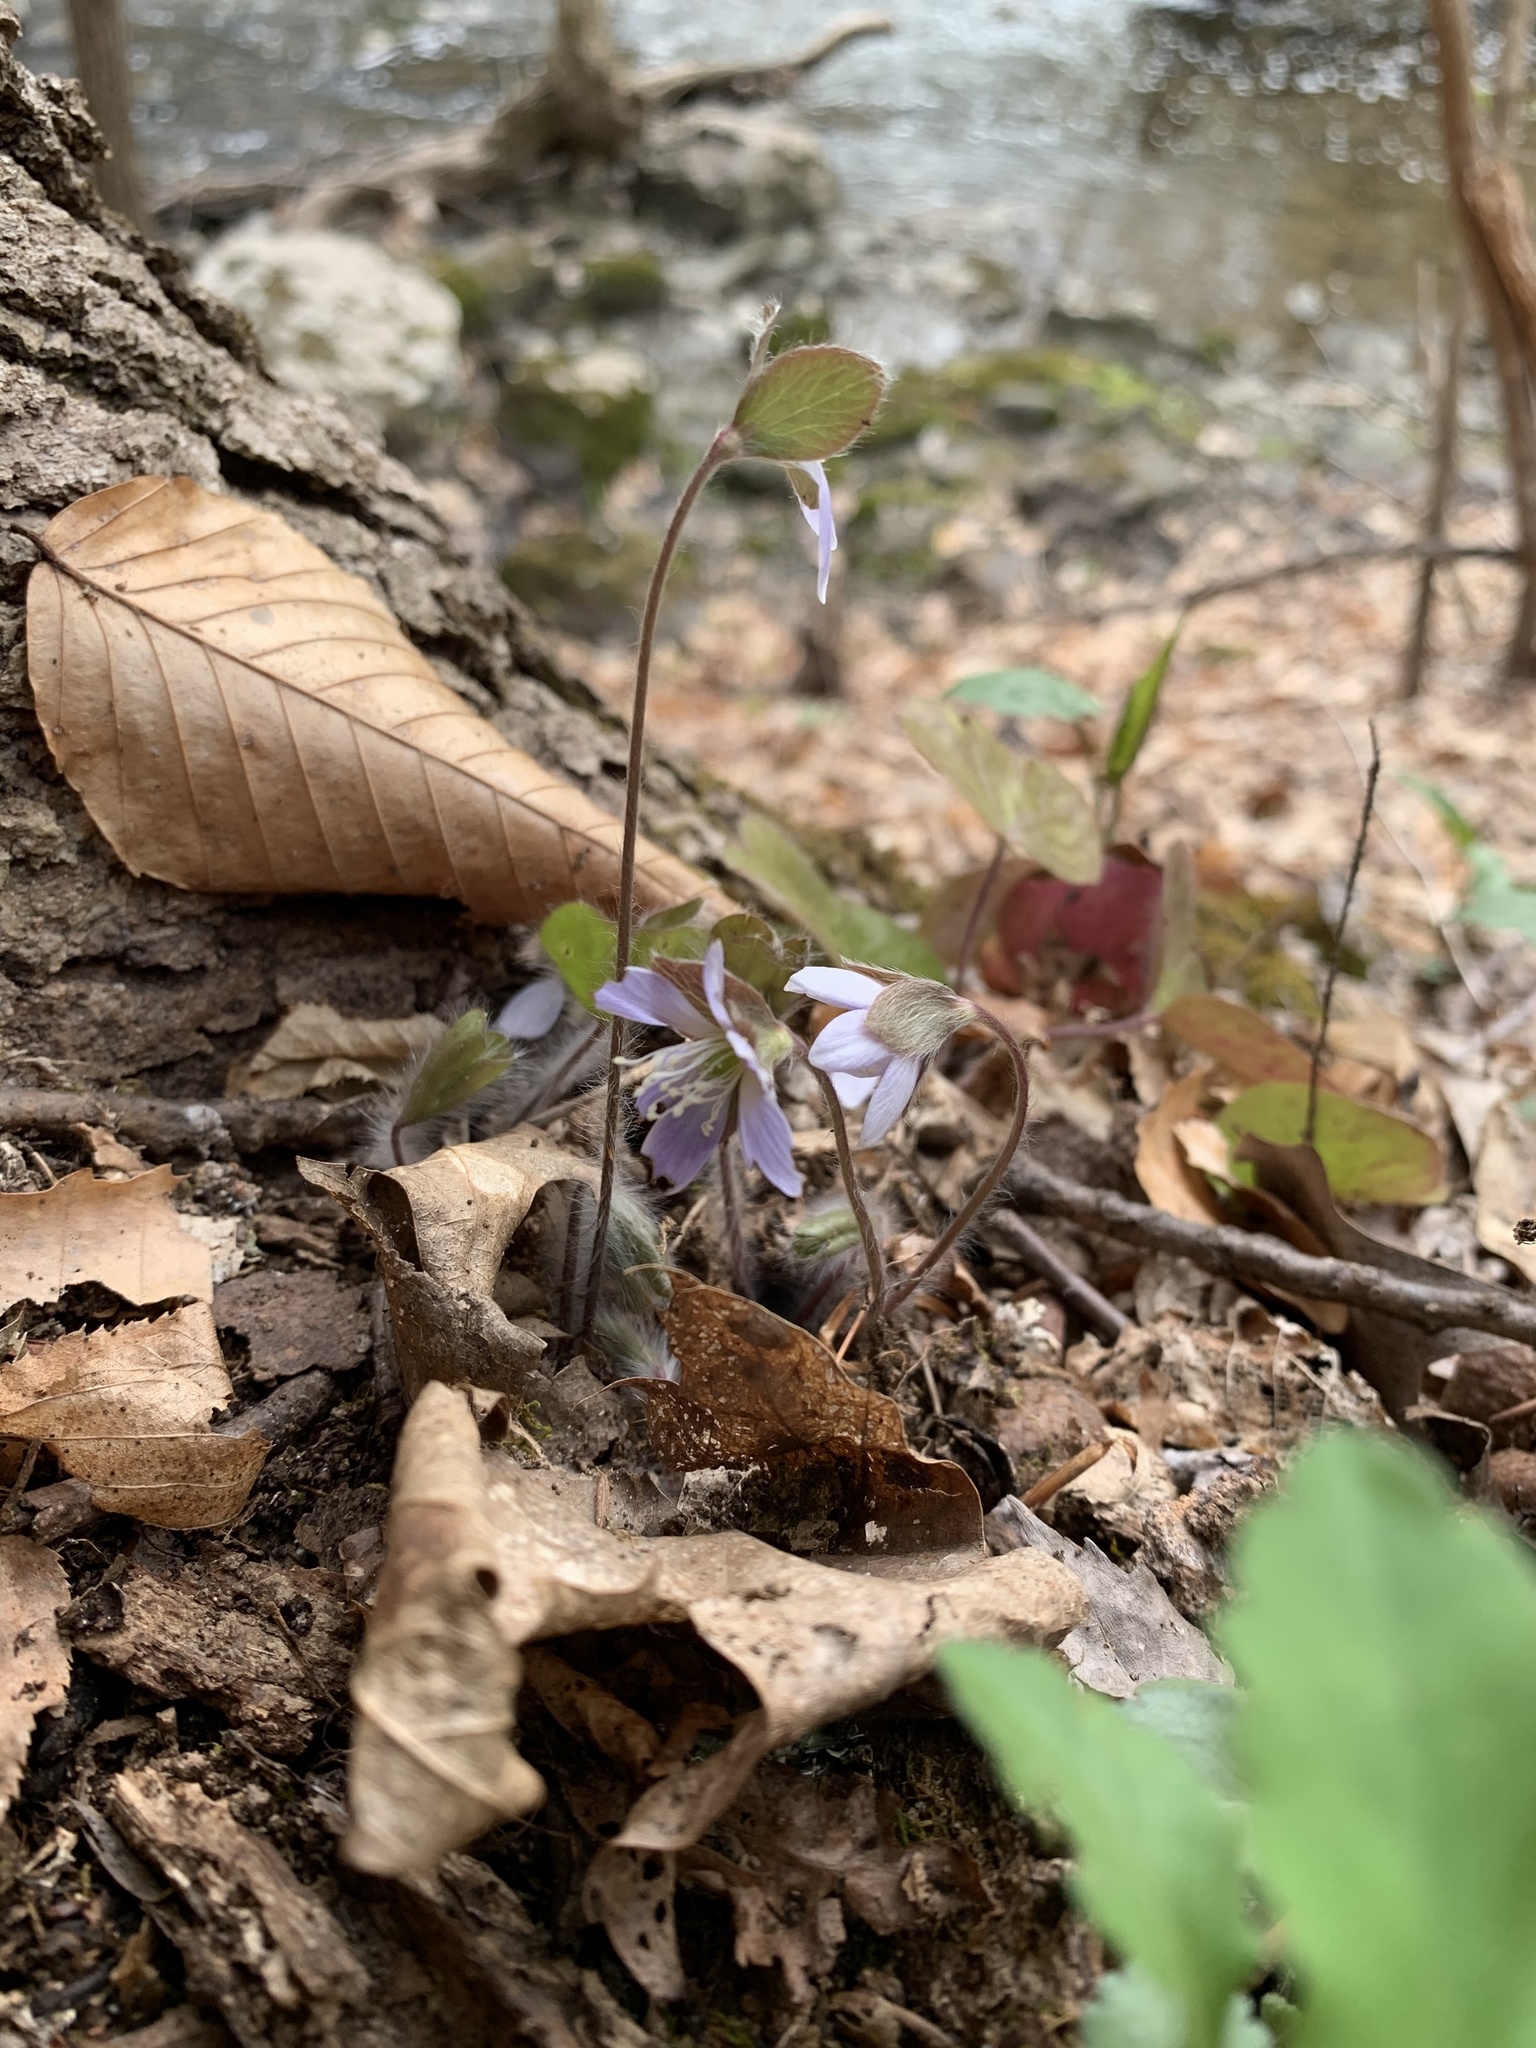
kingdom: Plantae
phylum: Tracheophyta
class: Magnoliopsida
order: Ranunculales
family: Ranunculaceae
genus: Hepatica
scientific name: Hepatica americana
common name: American hepatica
